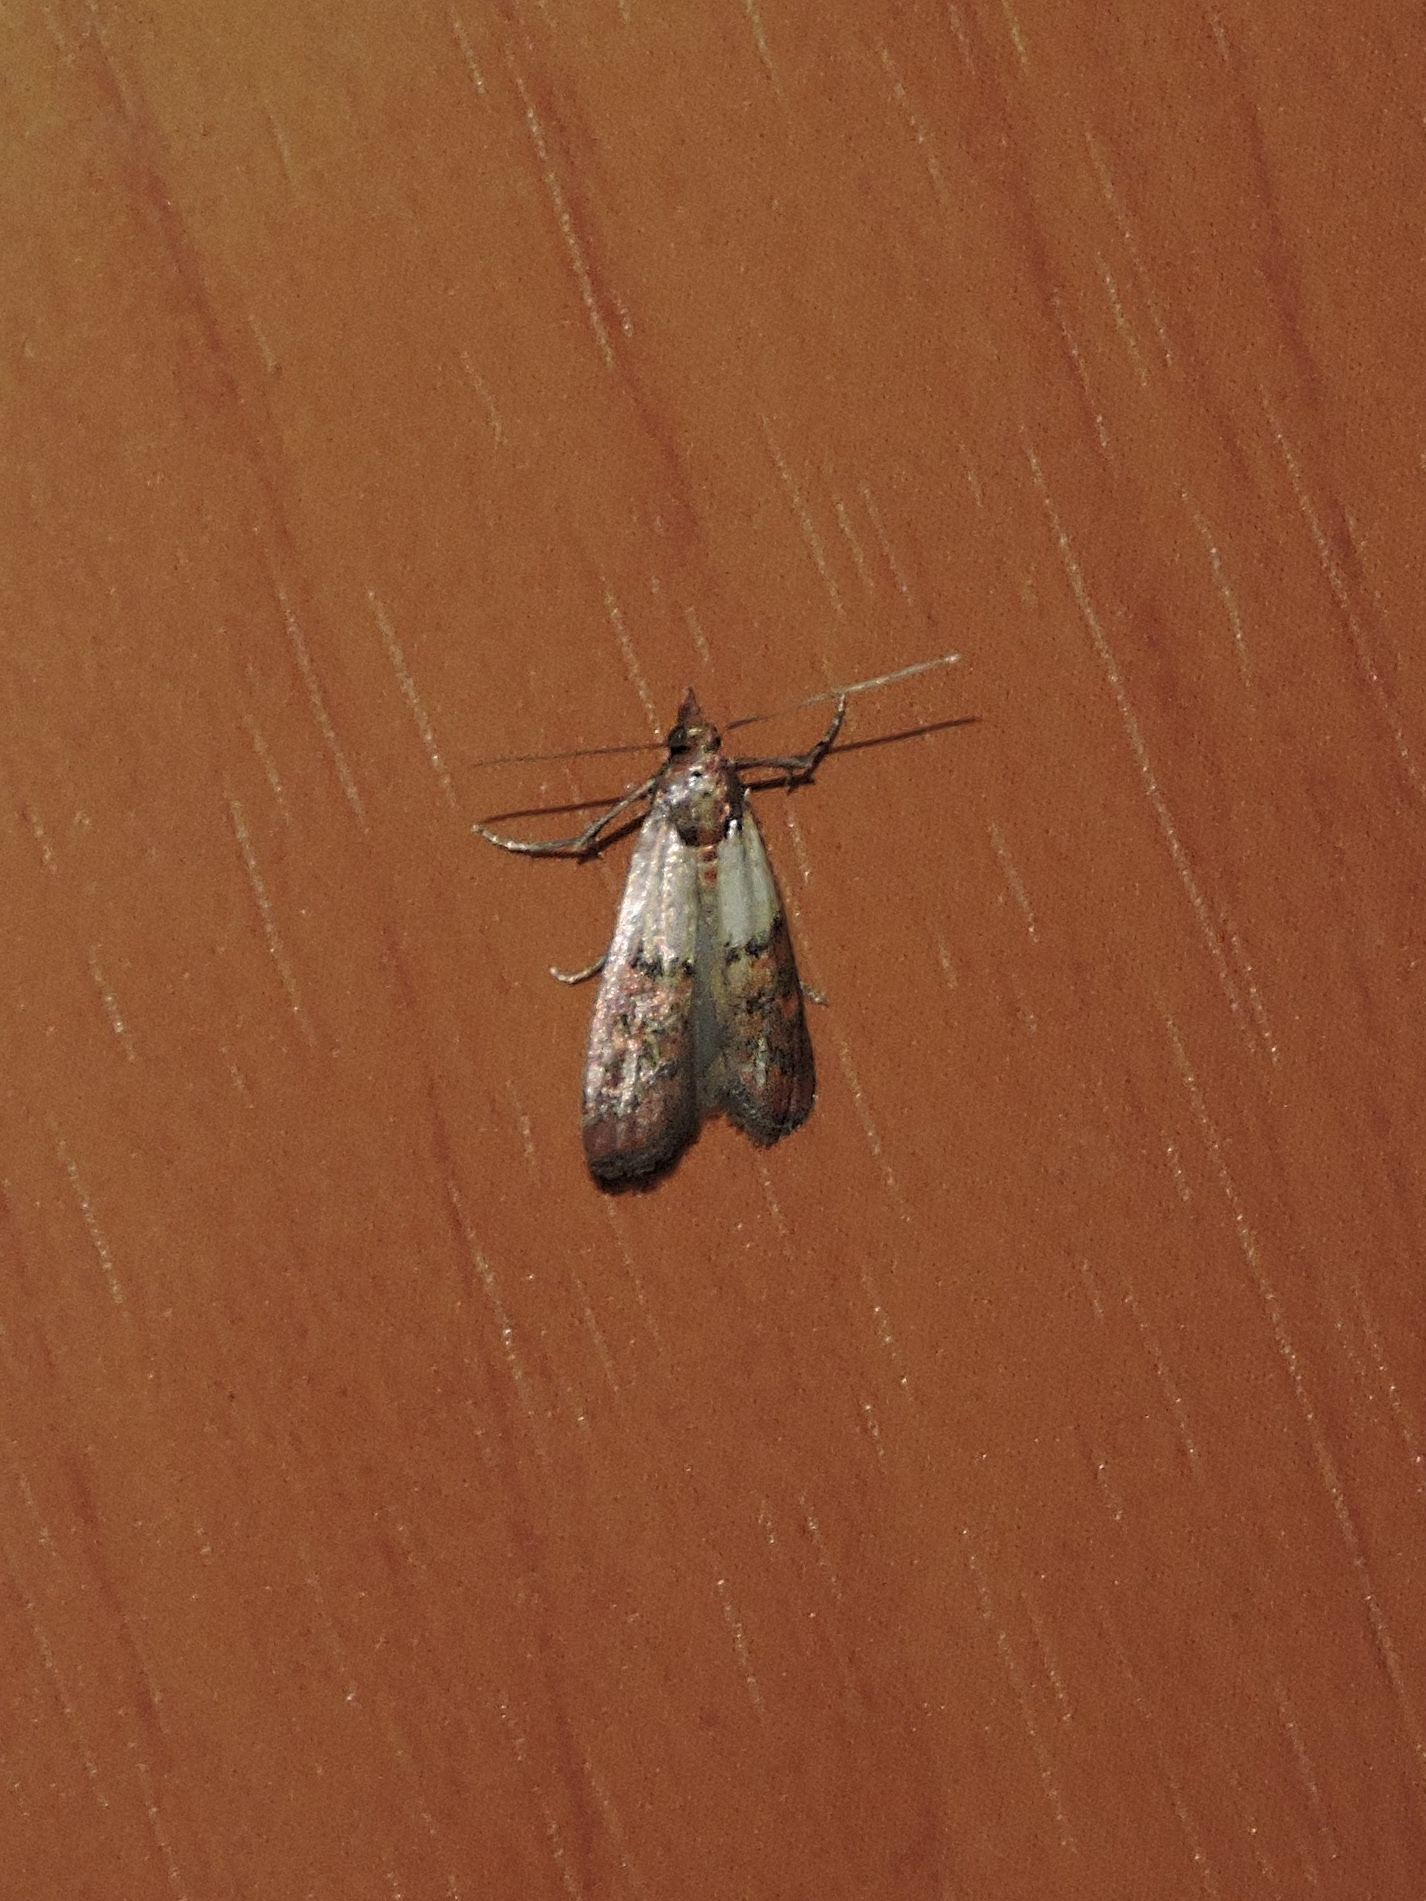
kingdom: Animalia
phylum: Arthropoda
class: Insecta
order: Lepidoptera
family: Pyralidae
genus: Plodia
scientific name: Plodia interpunctella
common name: Indian meal moth
